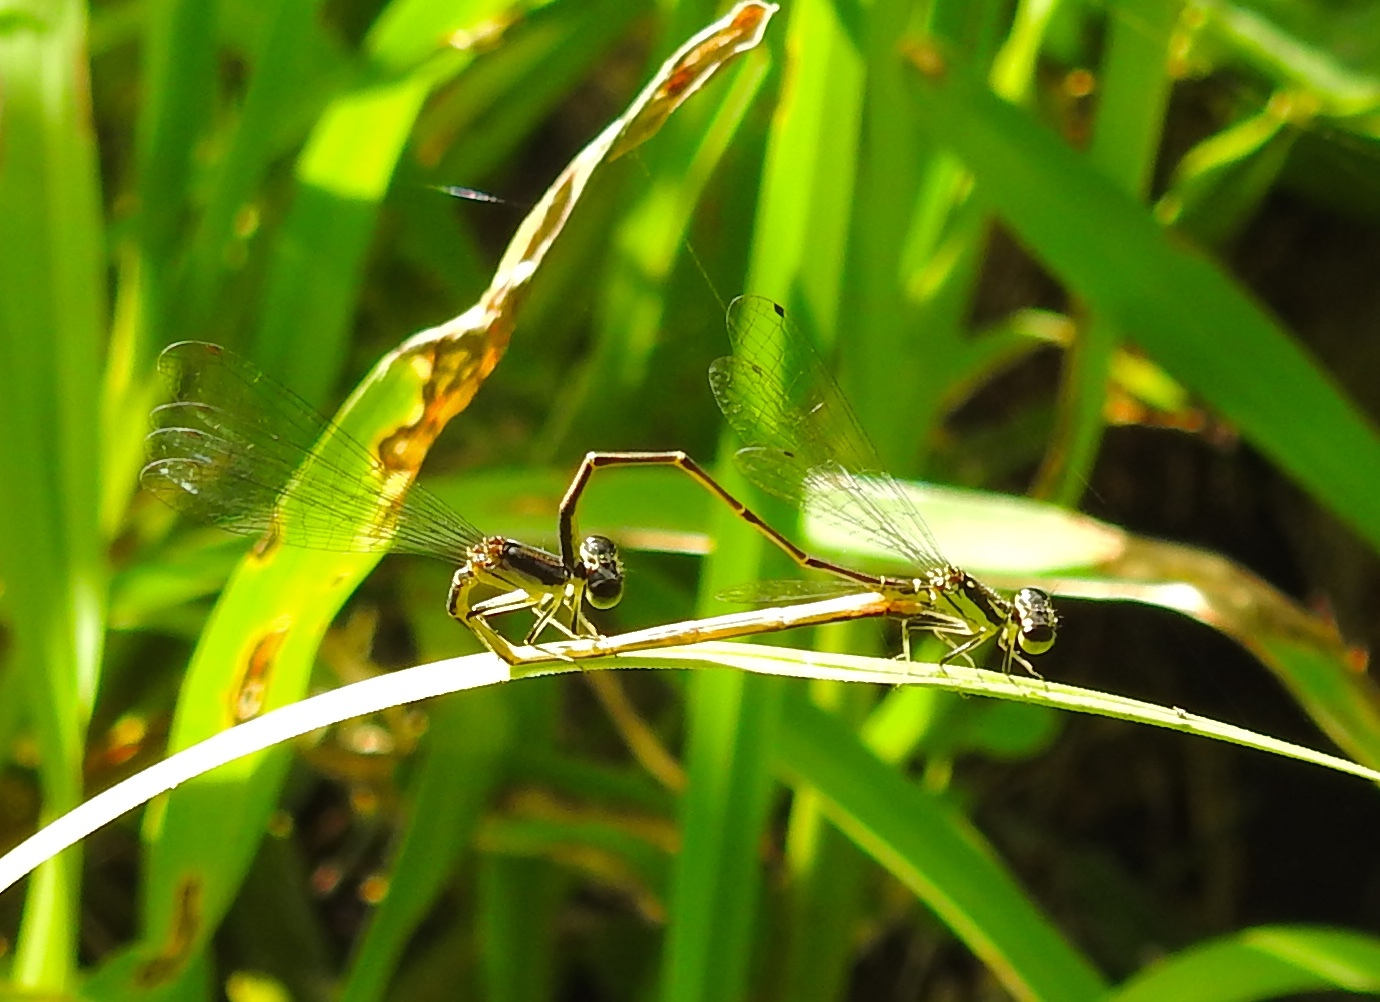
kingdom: Animalia
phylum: Arthropoda
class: Insecta
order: Odonata
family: Coenagrionidae
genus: Ischnura
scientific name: Ischnura posita
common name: Fragile forktail
